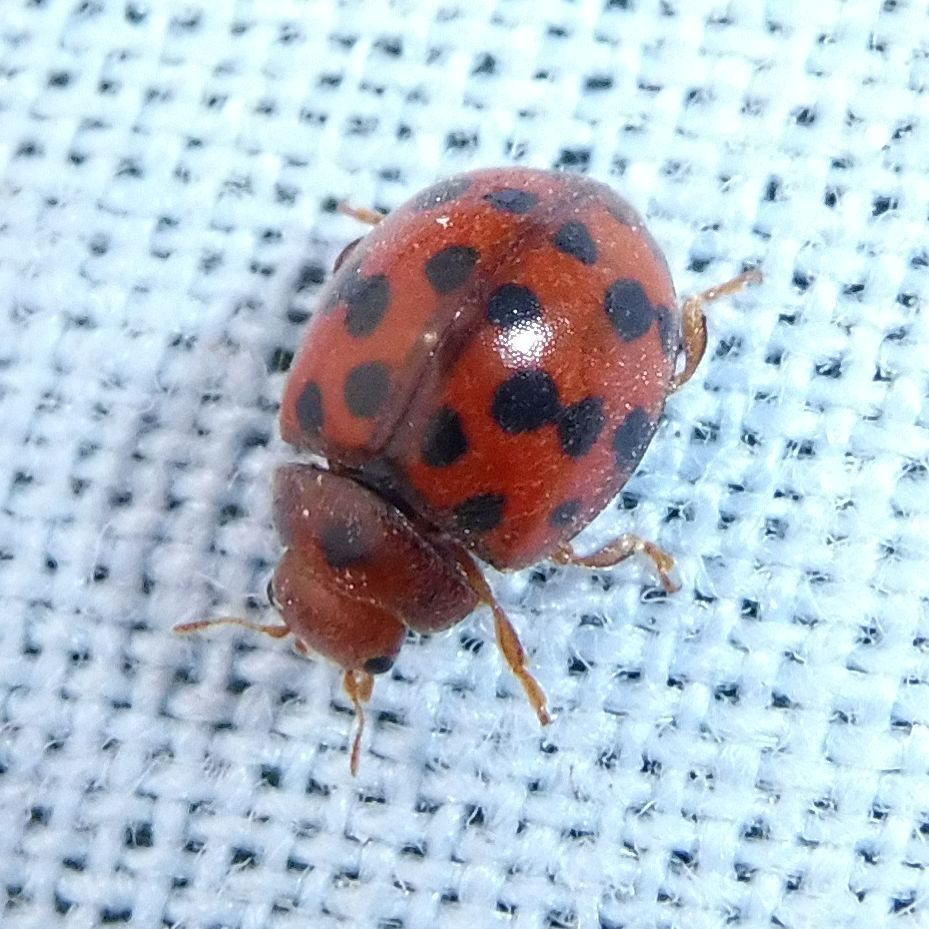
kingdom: Animalia
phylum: Arthropoda
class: Insecta
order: Coleoptera
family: Coccinellidae
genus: Subcoccinella
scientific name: Subcoccinella vigintiquatuorpunctata
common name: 24-spot ladybird
